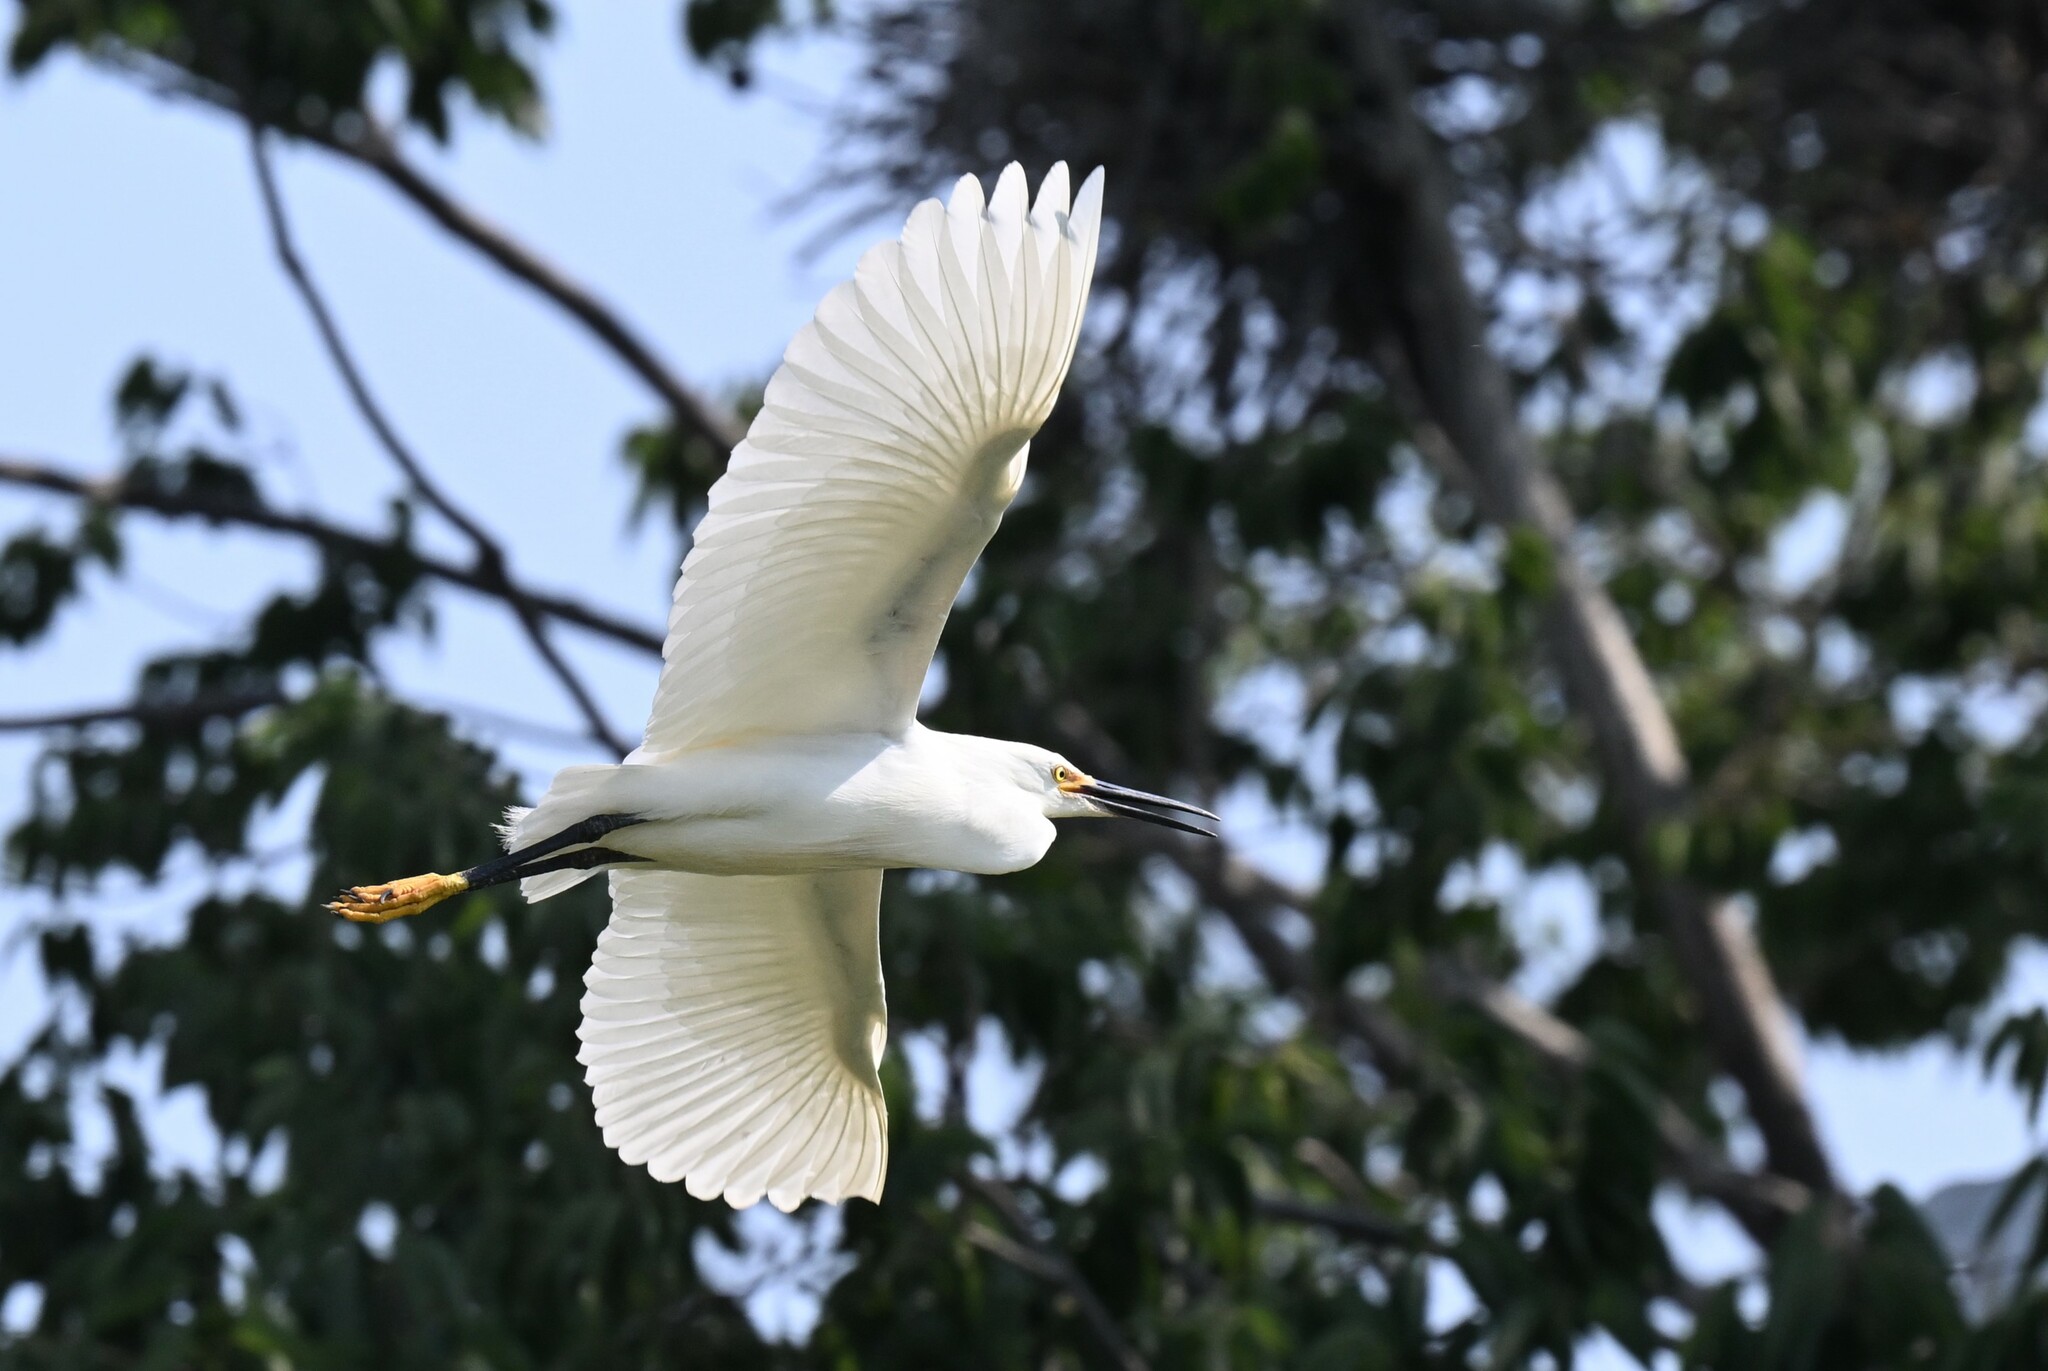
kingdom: Animalia
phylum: Chordata
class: Aves
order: Pelecaniformes
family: Ardeidae
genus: Egretta
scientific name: Egretta thula
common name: Snowy egret
